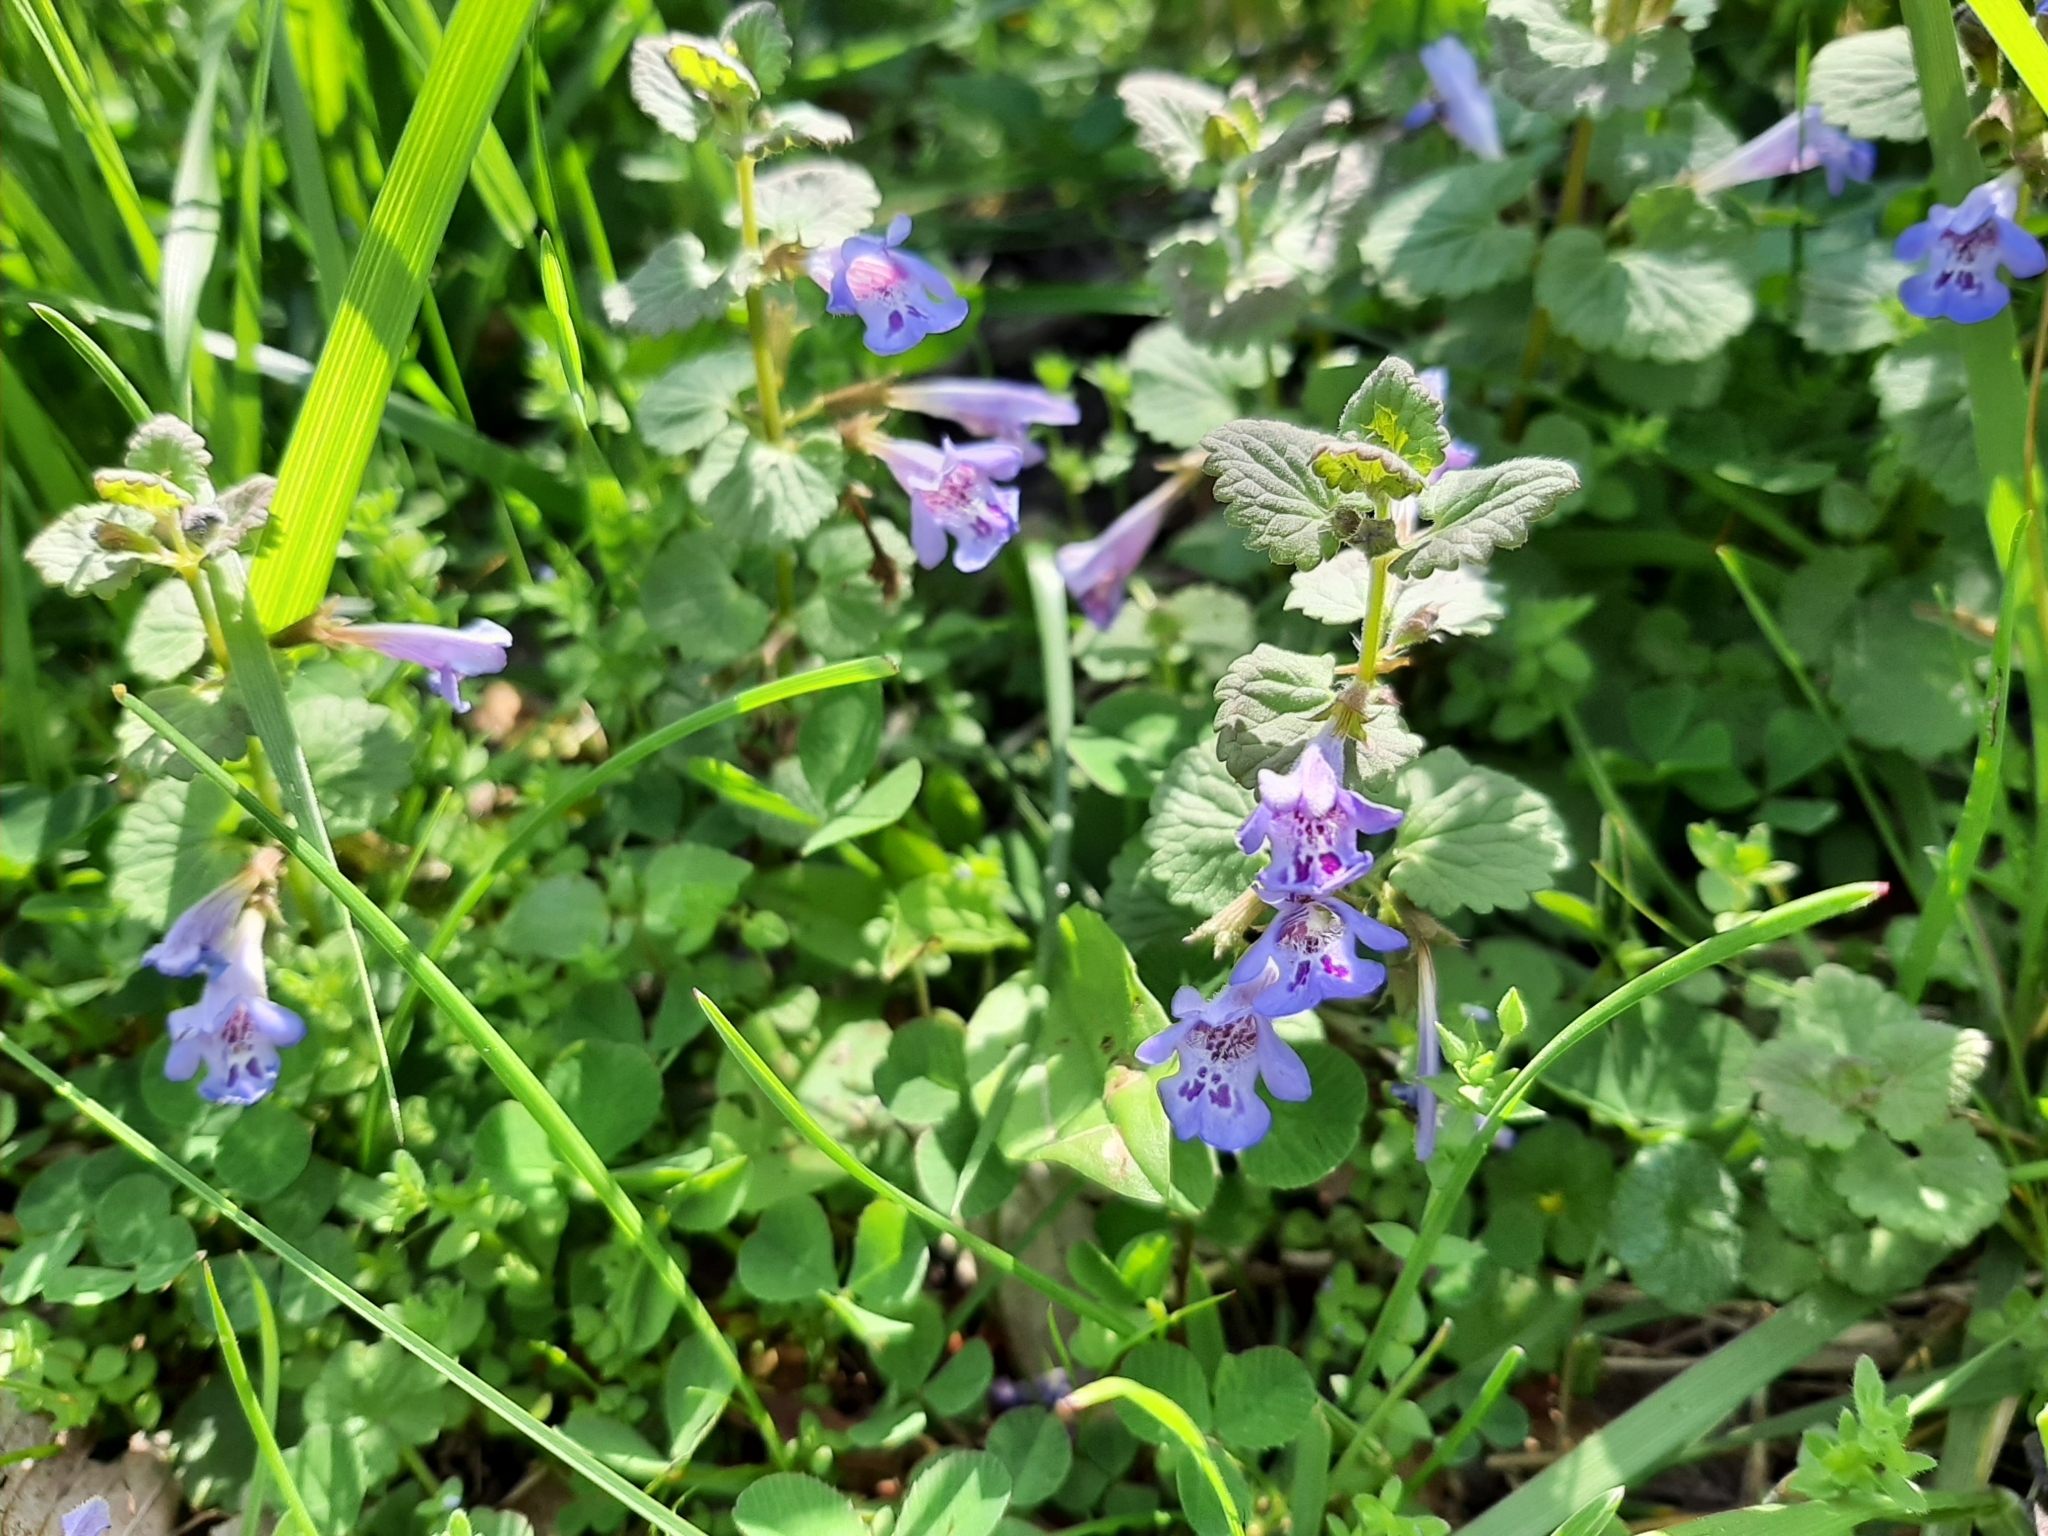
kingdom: Plantae
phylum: Tracheophyta
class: Magnoliopsida
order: Lamiales
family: Lamiaceae
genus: Glechoma
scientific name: Glechoma hederacea
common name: Ground ivy
